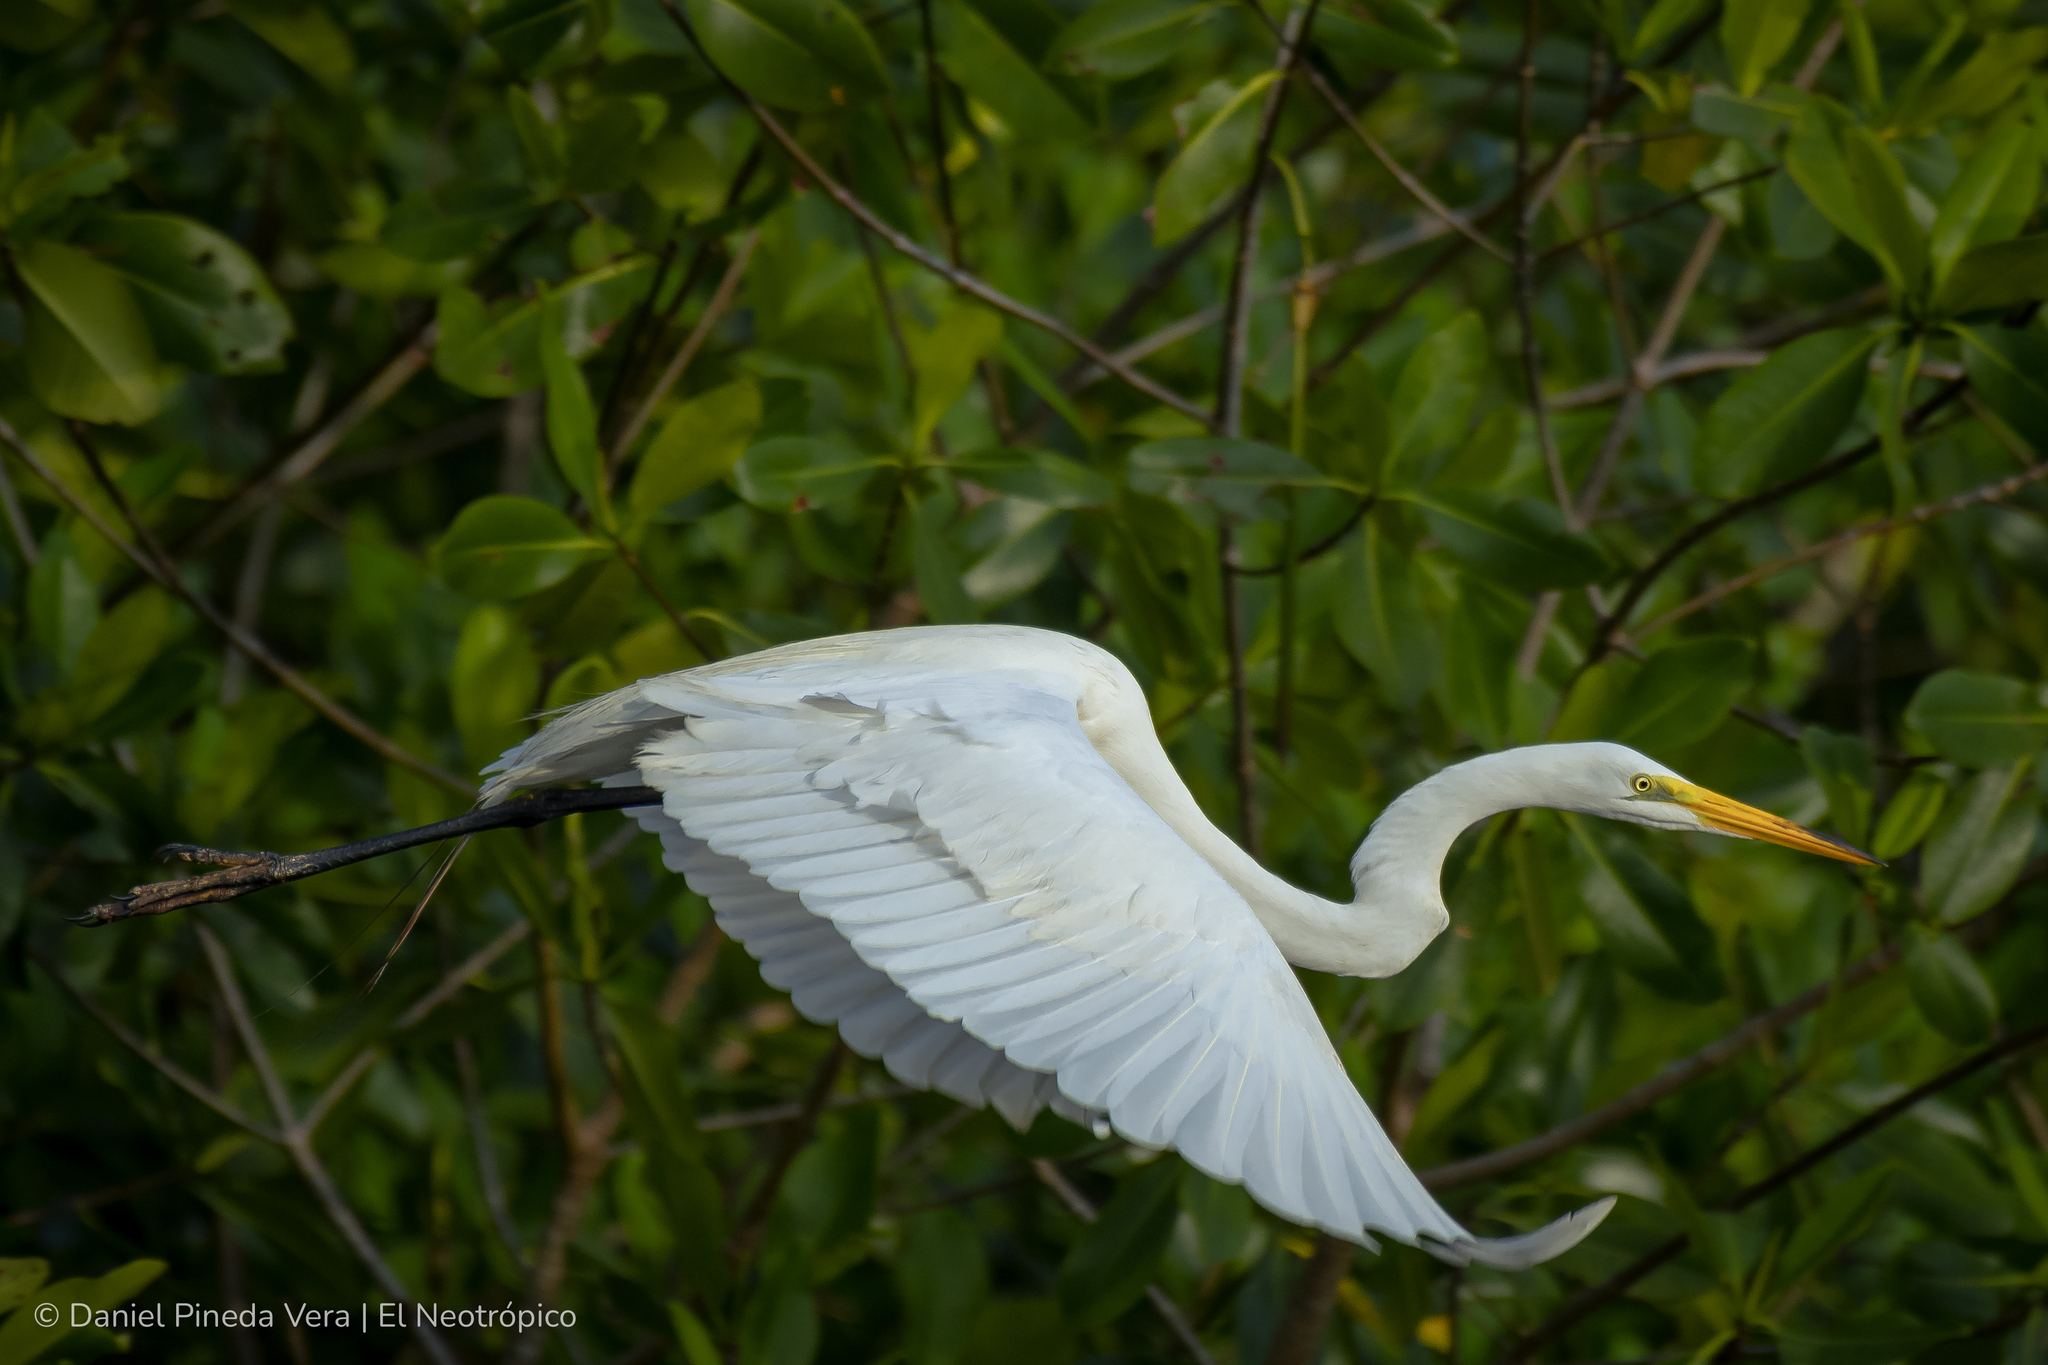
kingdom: Animalia
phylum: Chordata
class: Aves
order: Pelecaniformes
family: Ardeidae
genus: Ardea
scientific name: Ardea alba
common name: Great egret
